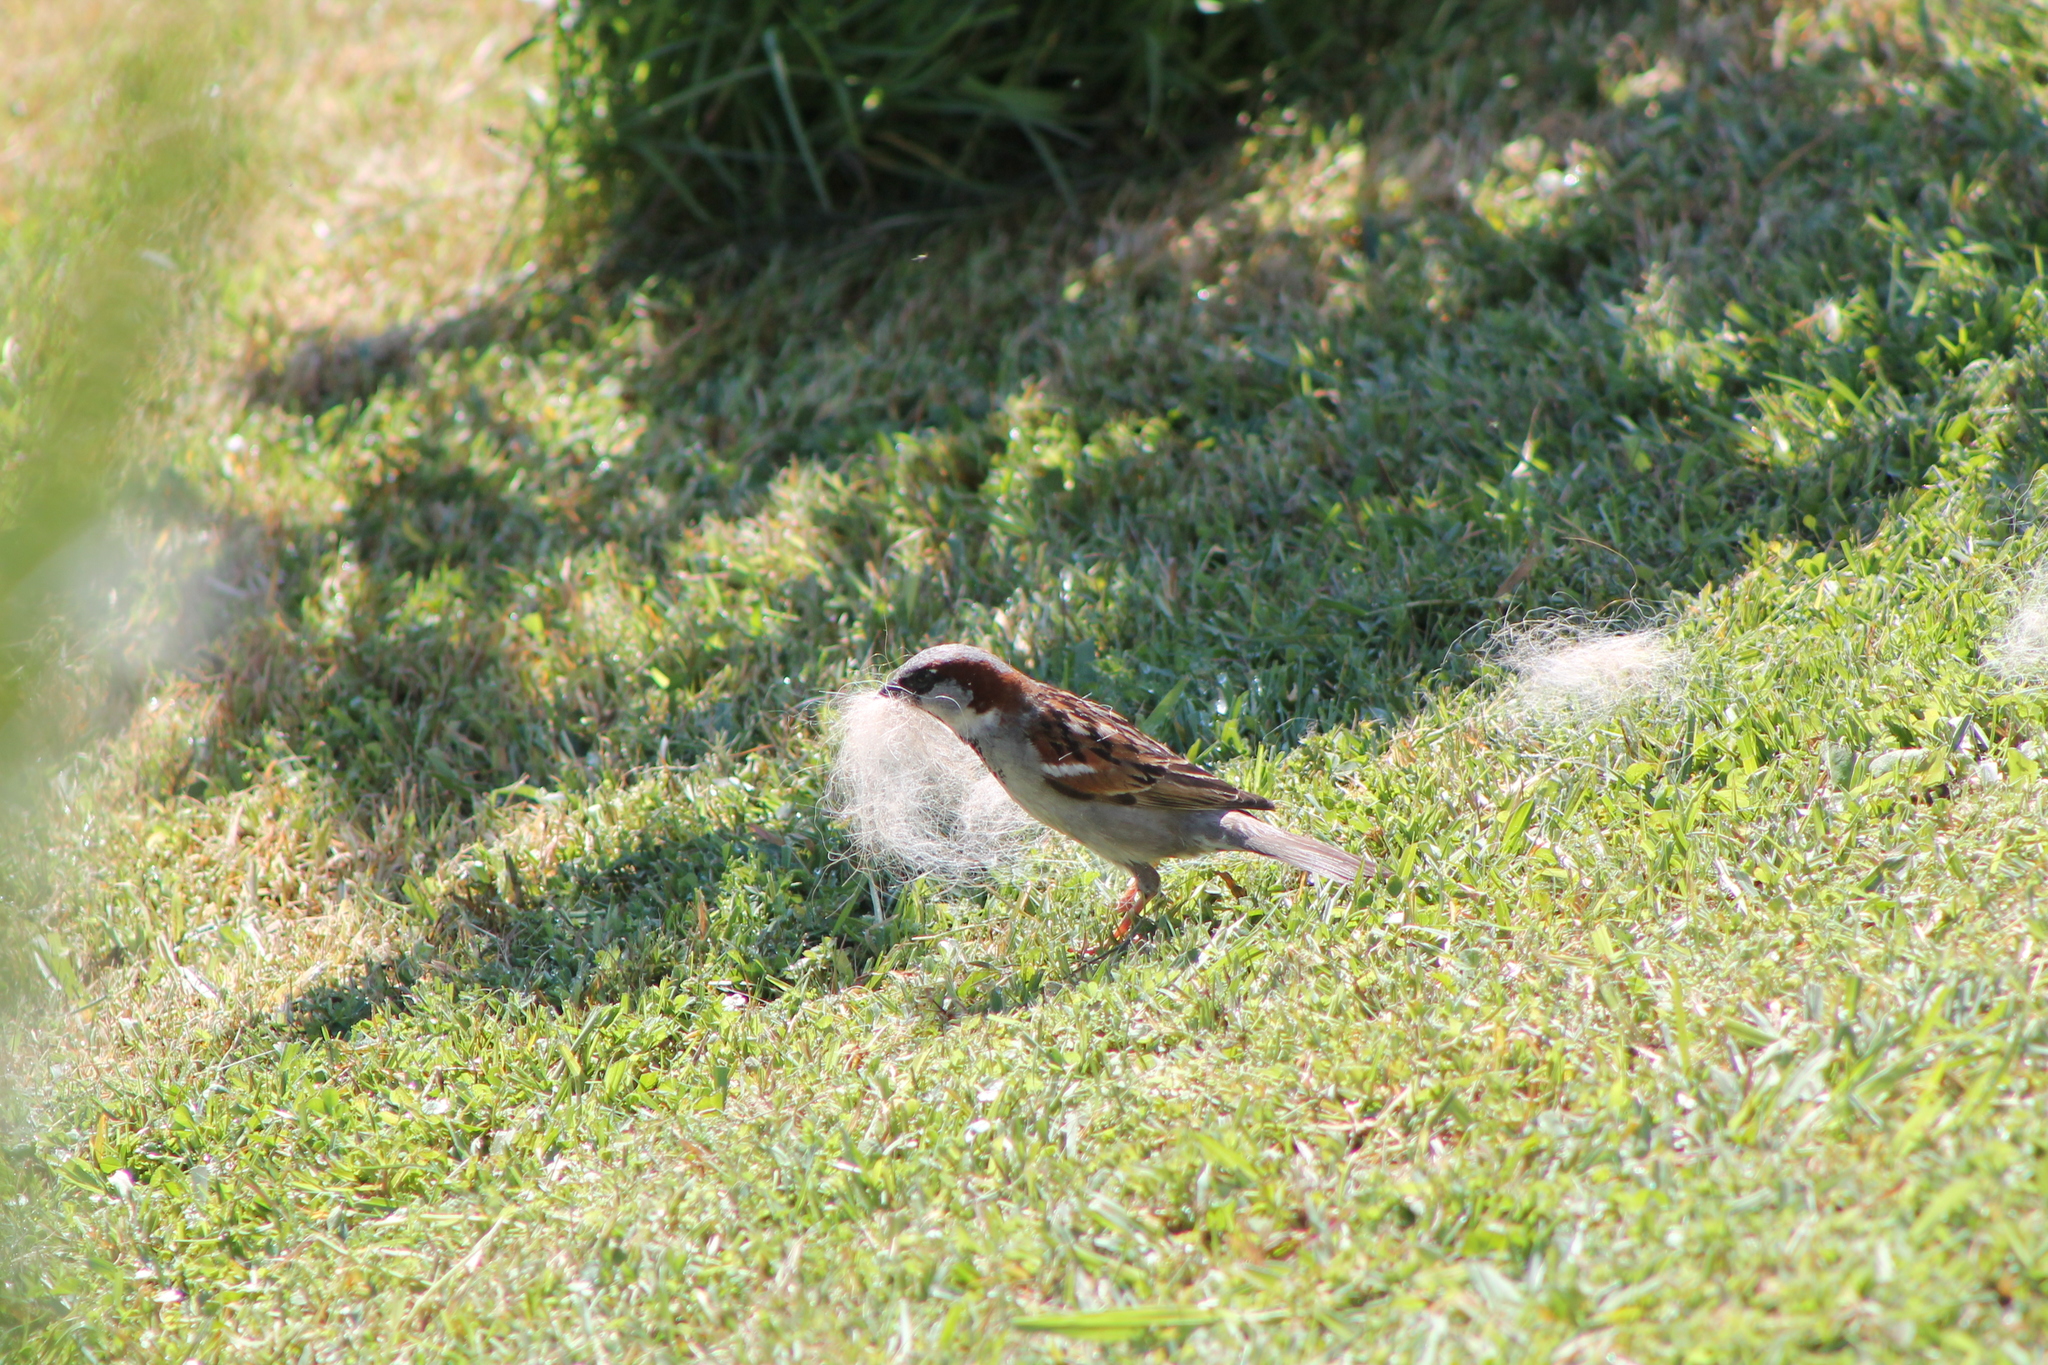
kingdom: Animalia
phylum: Chordata
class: Aves
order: Passeriformes
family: Passeridae
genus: Passer
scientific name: Passer domesticus
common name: House sparrow
